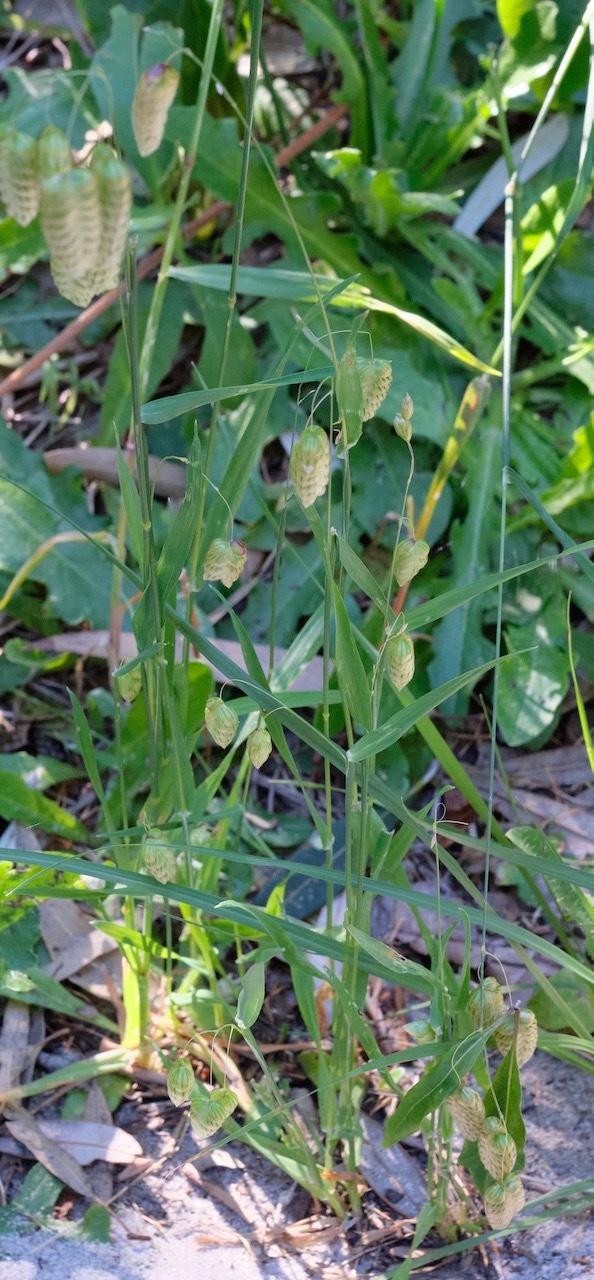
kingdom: Plantae
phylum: Tracheophyta
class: Liliopsida
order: Poales
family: Poaceae
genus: Briza
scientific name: Briza maxima
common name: Big quakinggrass
